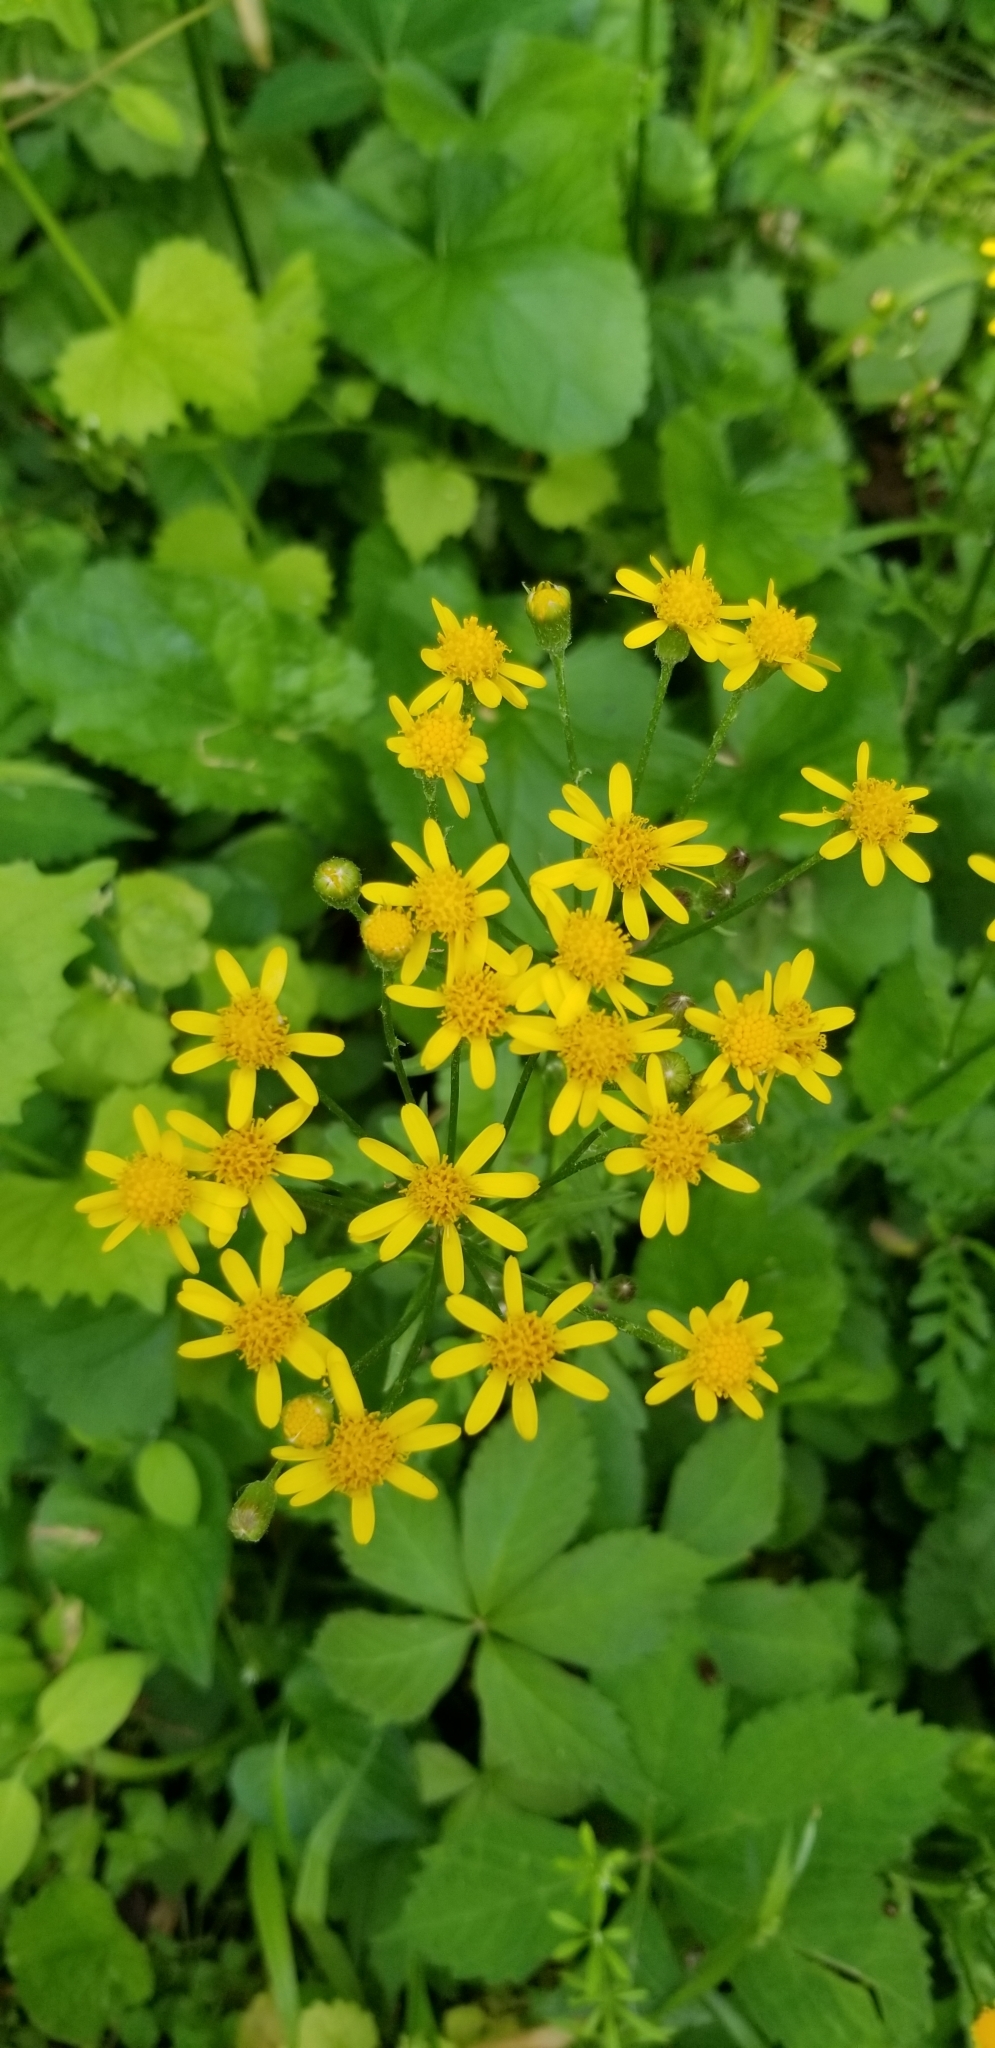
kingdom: Plantae
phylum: Tracheophyta
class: Magnoliopsida
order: Asterales
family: Asteraceae
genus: Packera
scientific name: Packera aurea
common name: Golden groundsel
